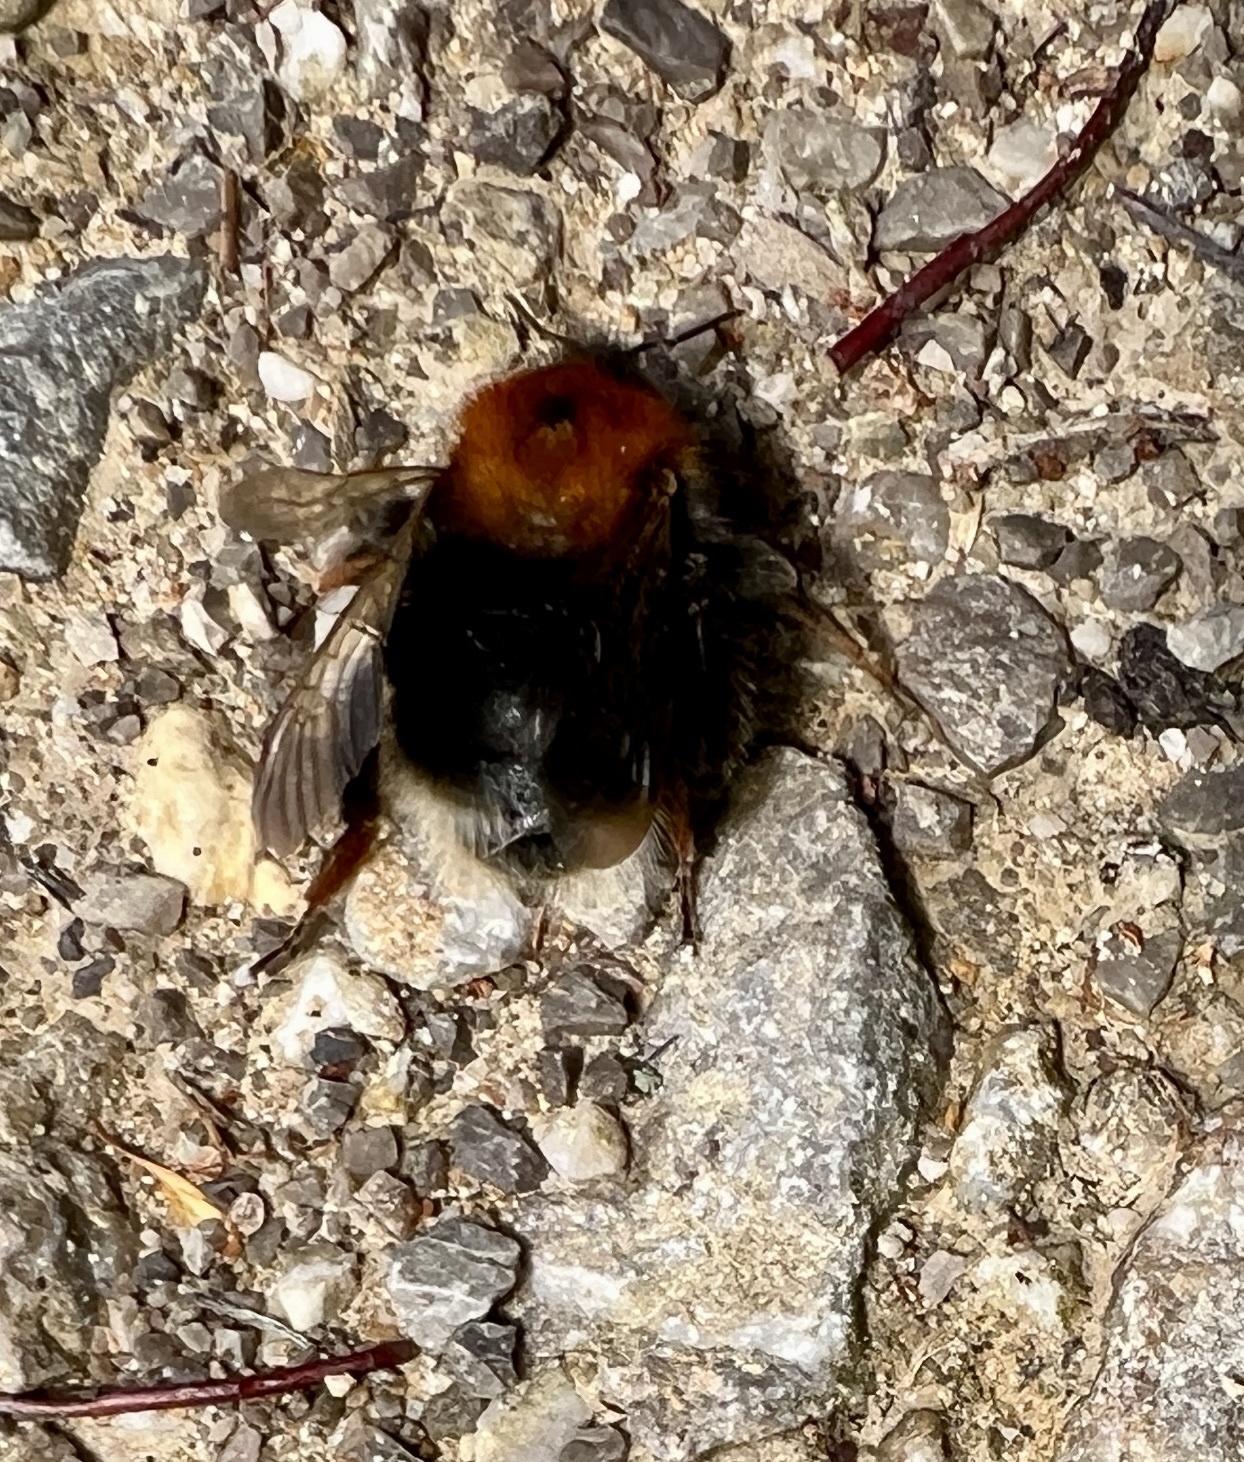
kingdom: Animalia
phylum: Arthropoda
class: Insecta
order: Hymenoptera
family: Apidae
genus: Bombus
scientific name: Bombus hypnorum
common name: New garden bumblebee
